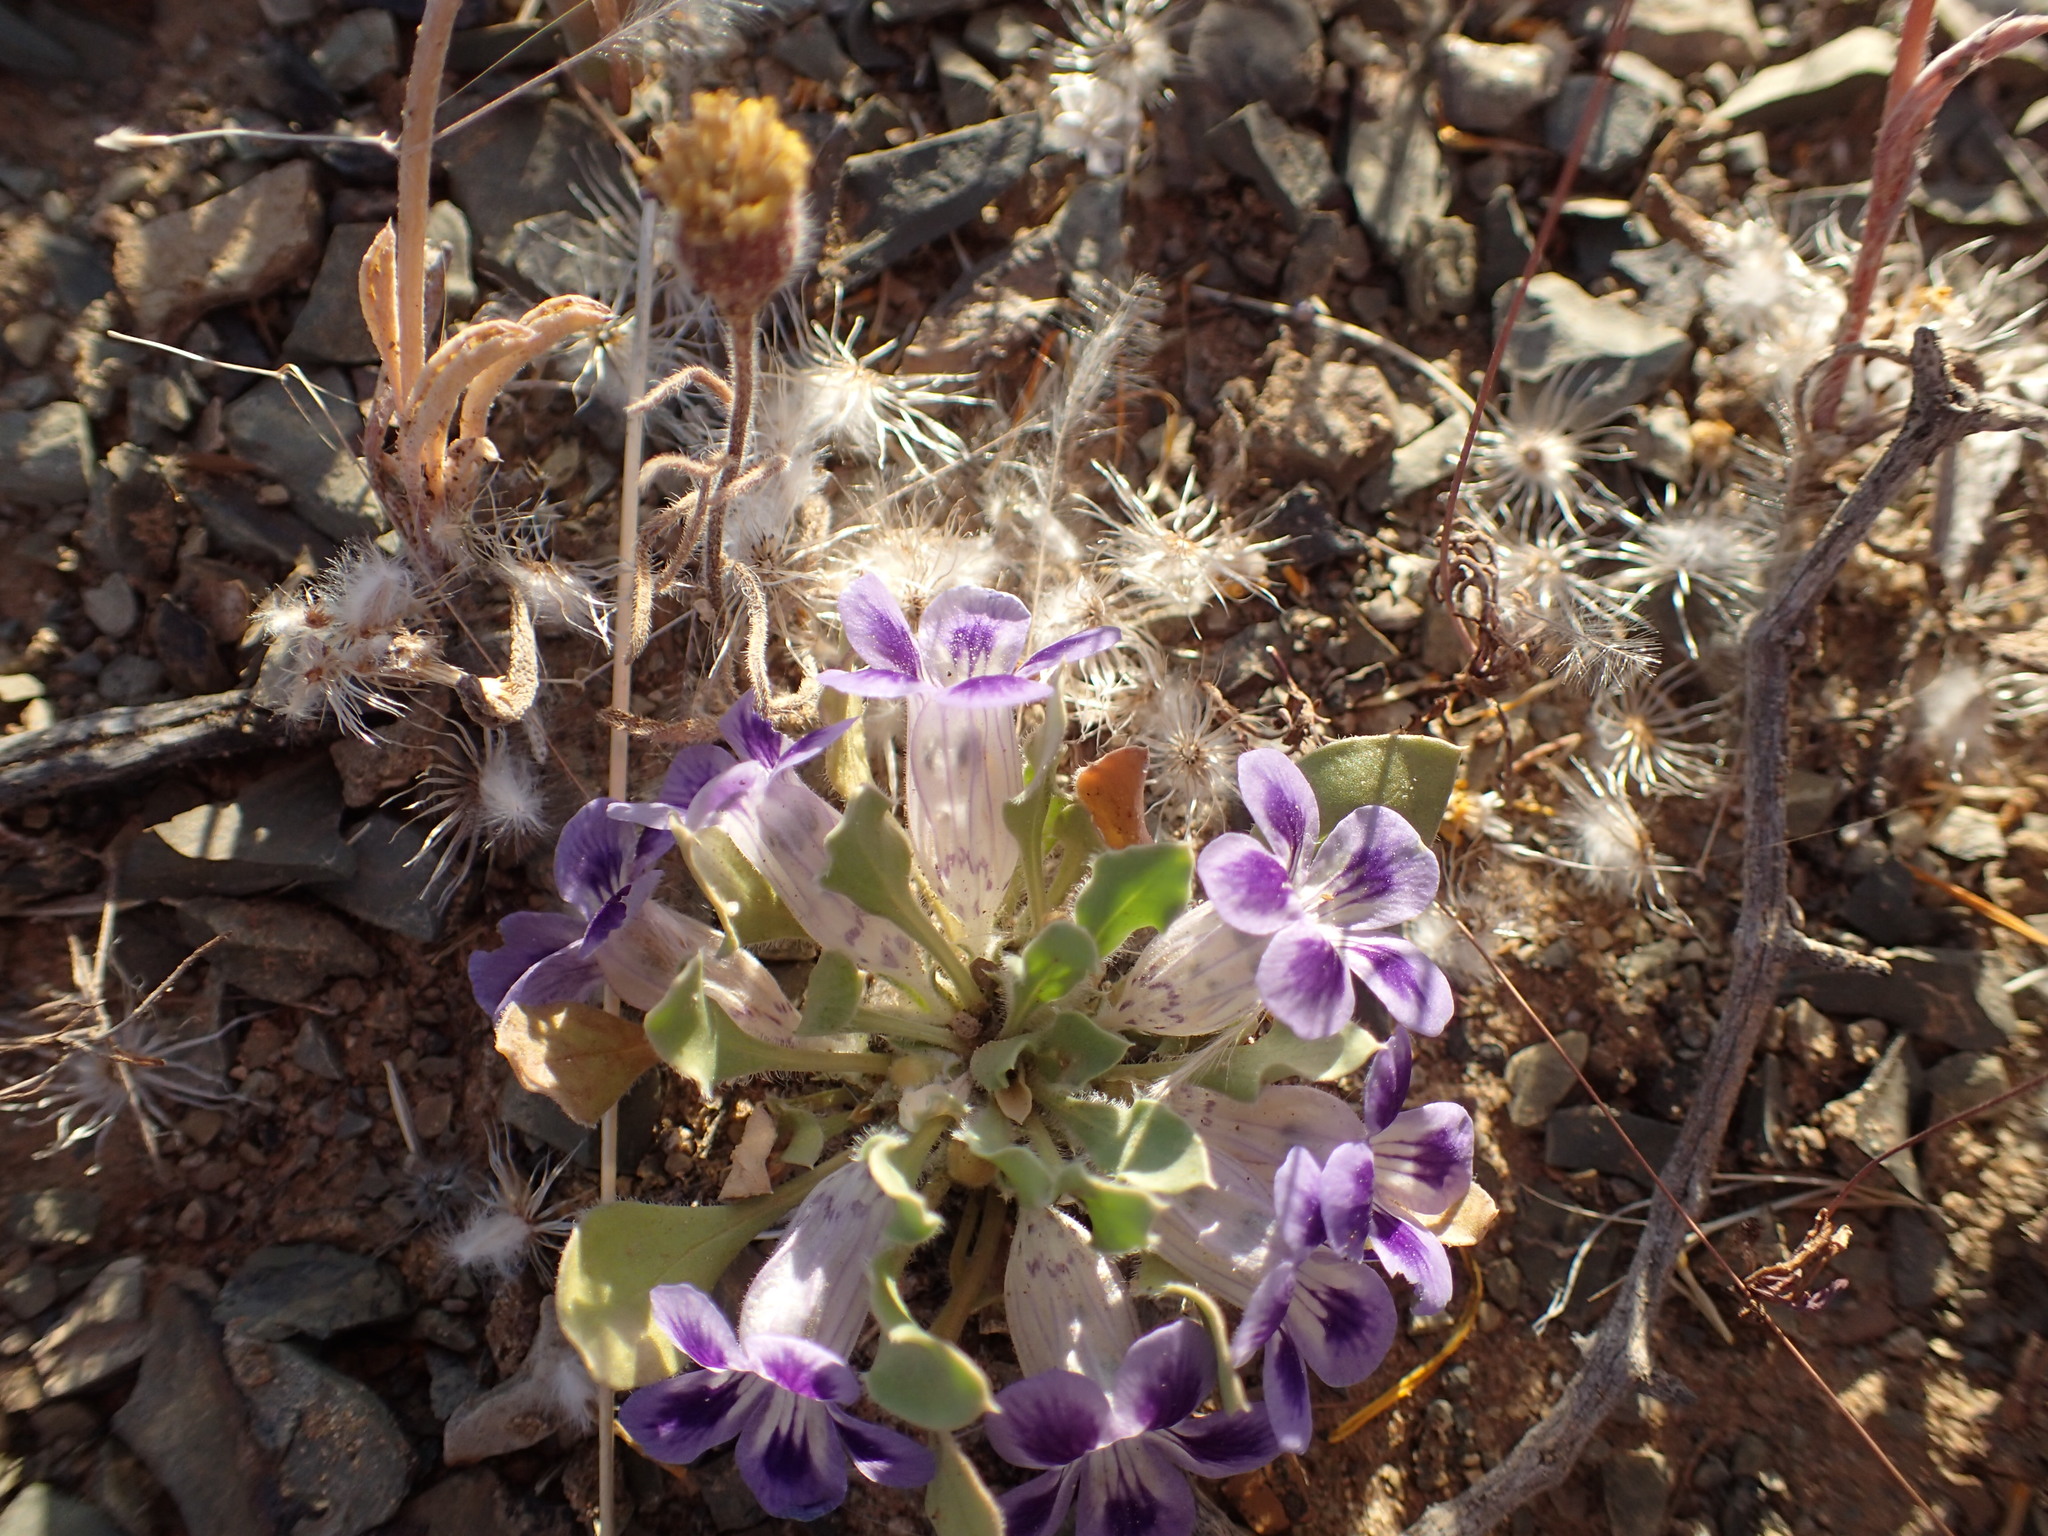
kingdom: Plantae
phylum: Tracheophyta
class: Magnoliopsida
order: Lamiales
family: Scrophulariaceae
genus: Aptosimum
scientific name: Aptosimum indivisum
